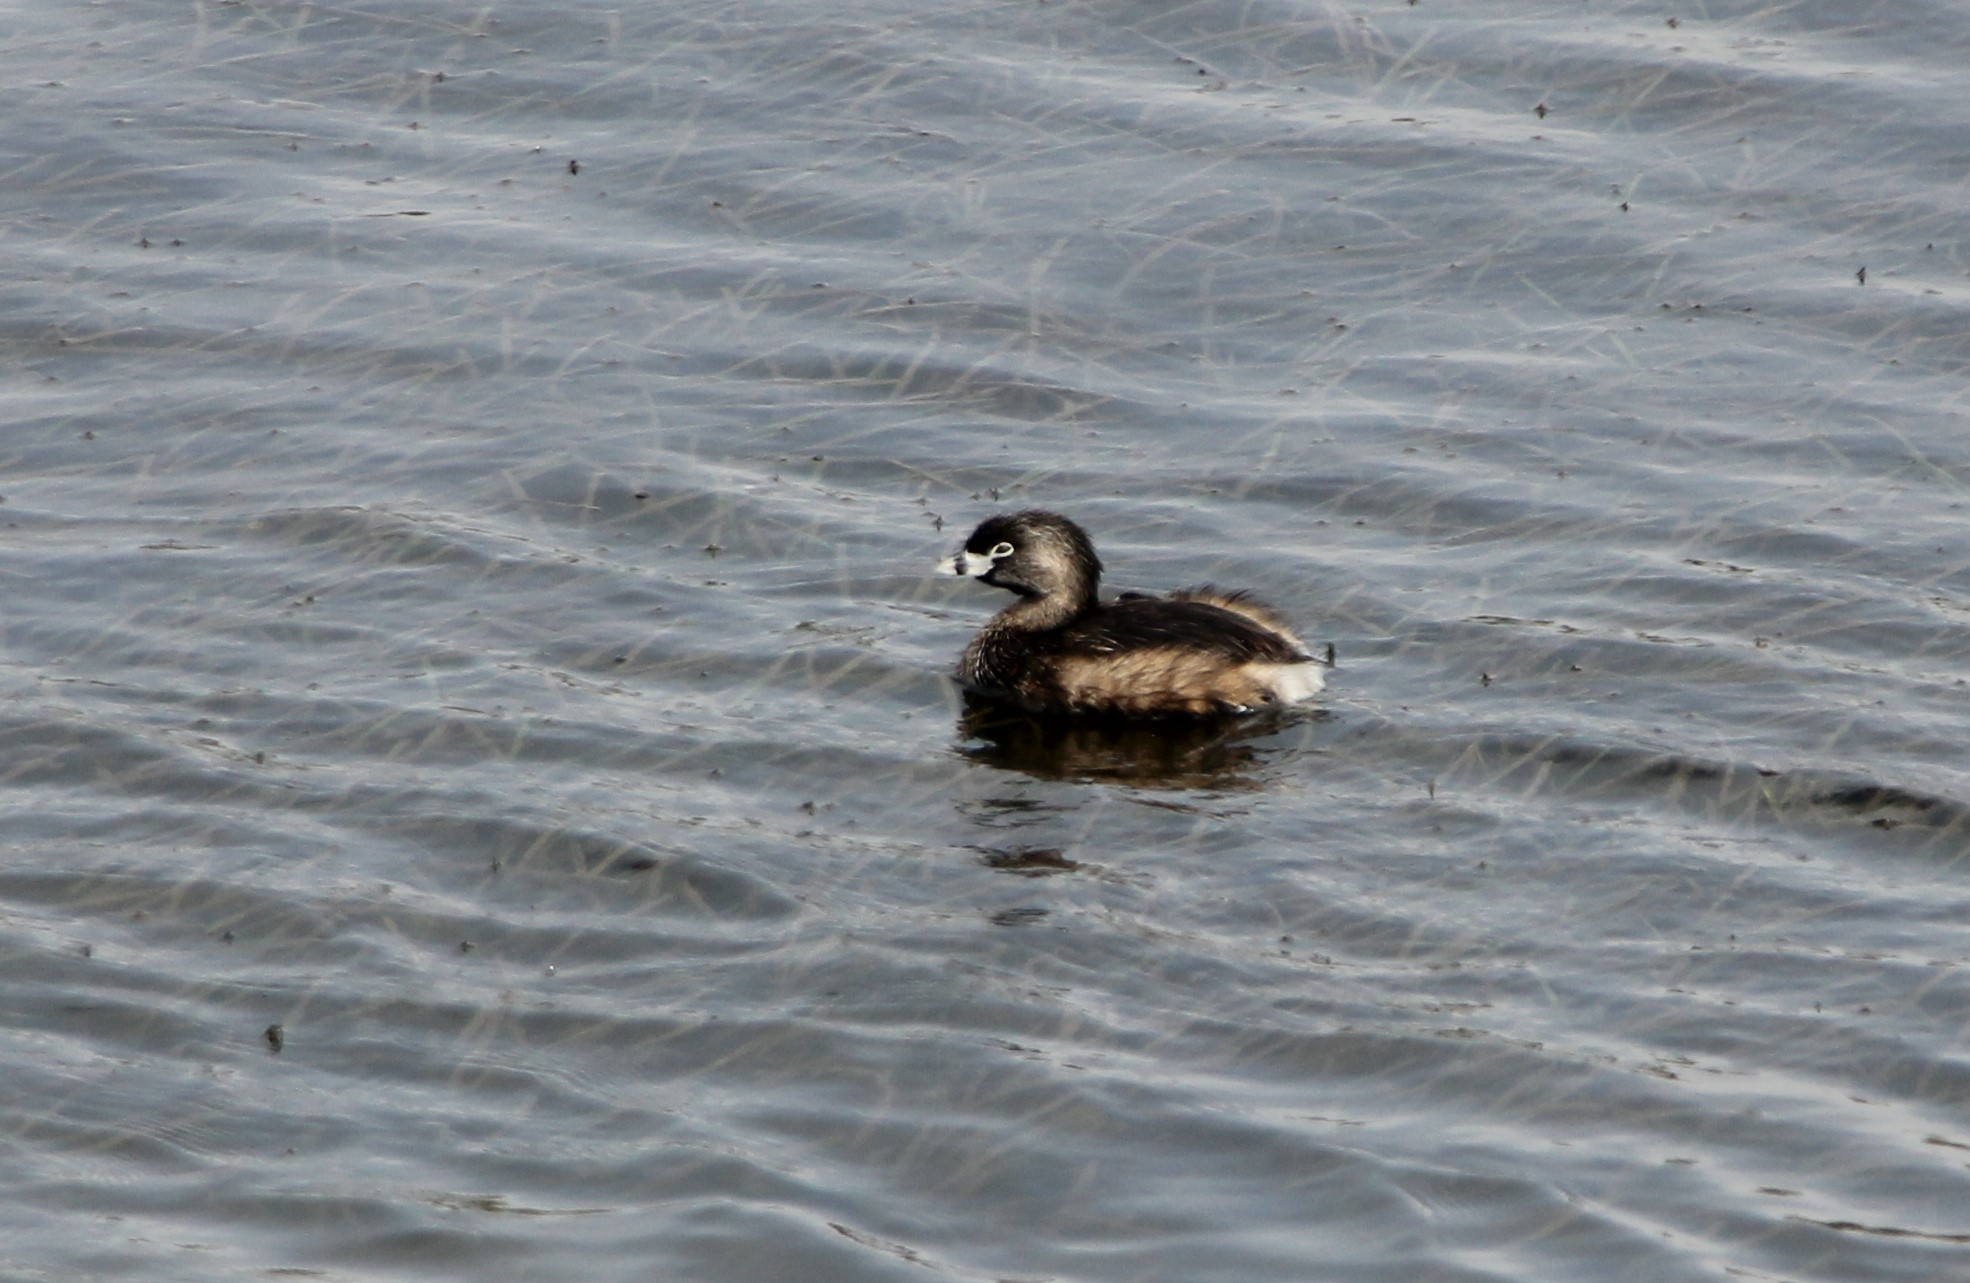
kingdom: Animalia
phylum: Chordata
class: Aves
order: Podicipediformes
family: Podicipedidae
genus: Podilymbus
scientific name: Podilymbus podiceps
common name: Pied-billed grebe
